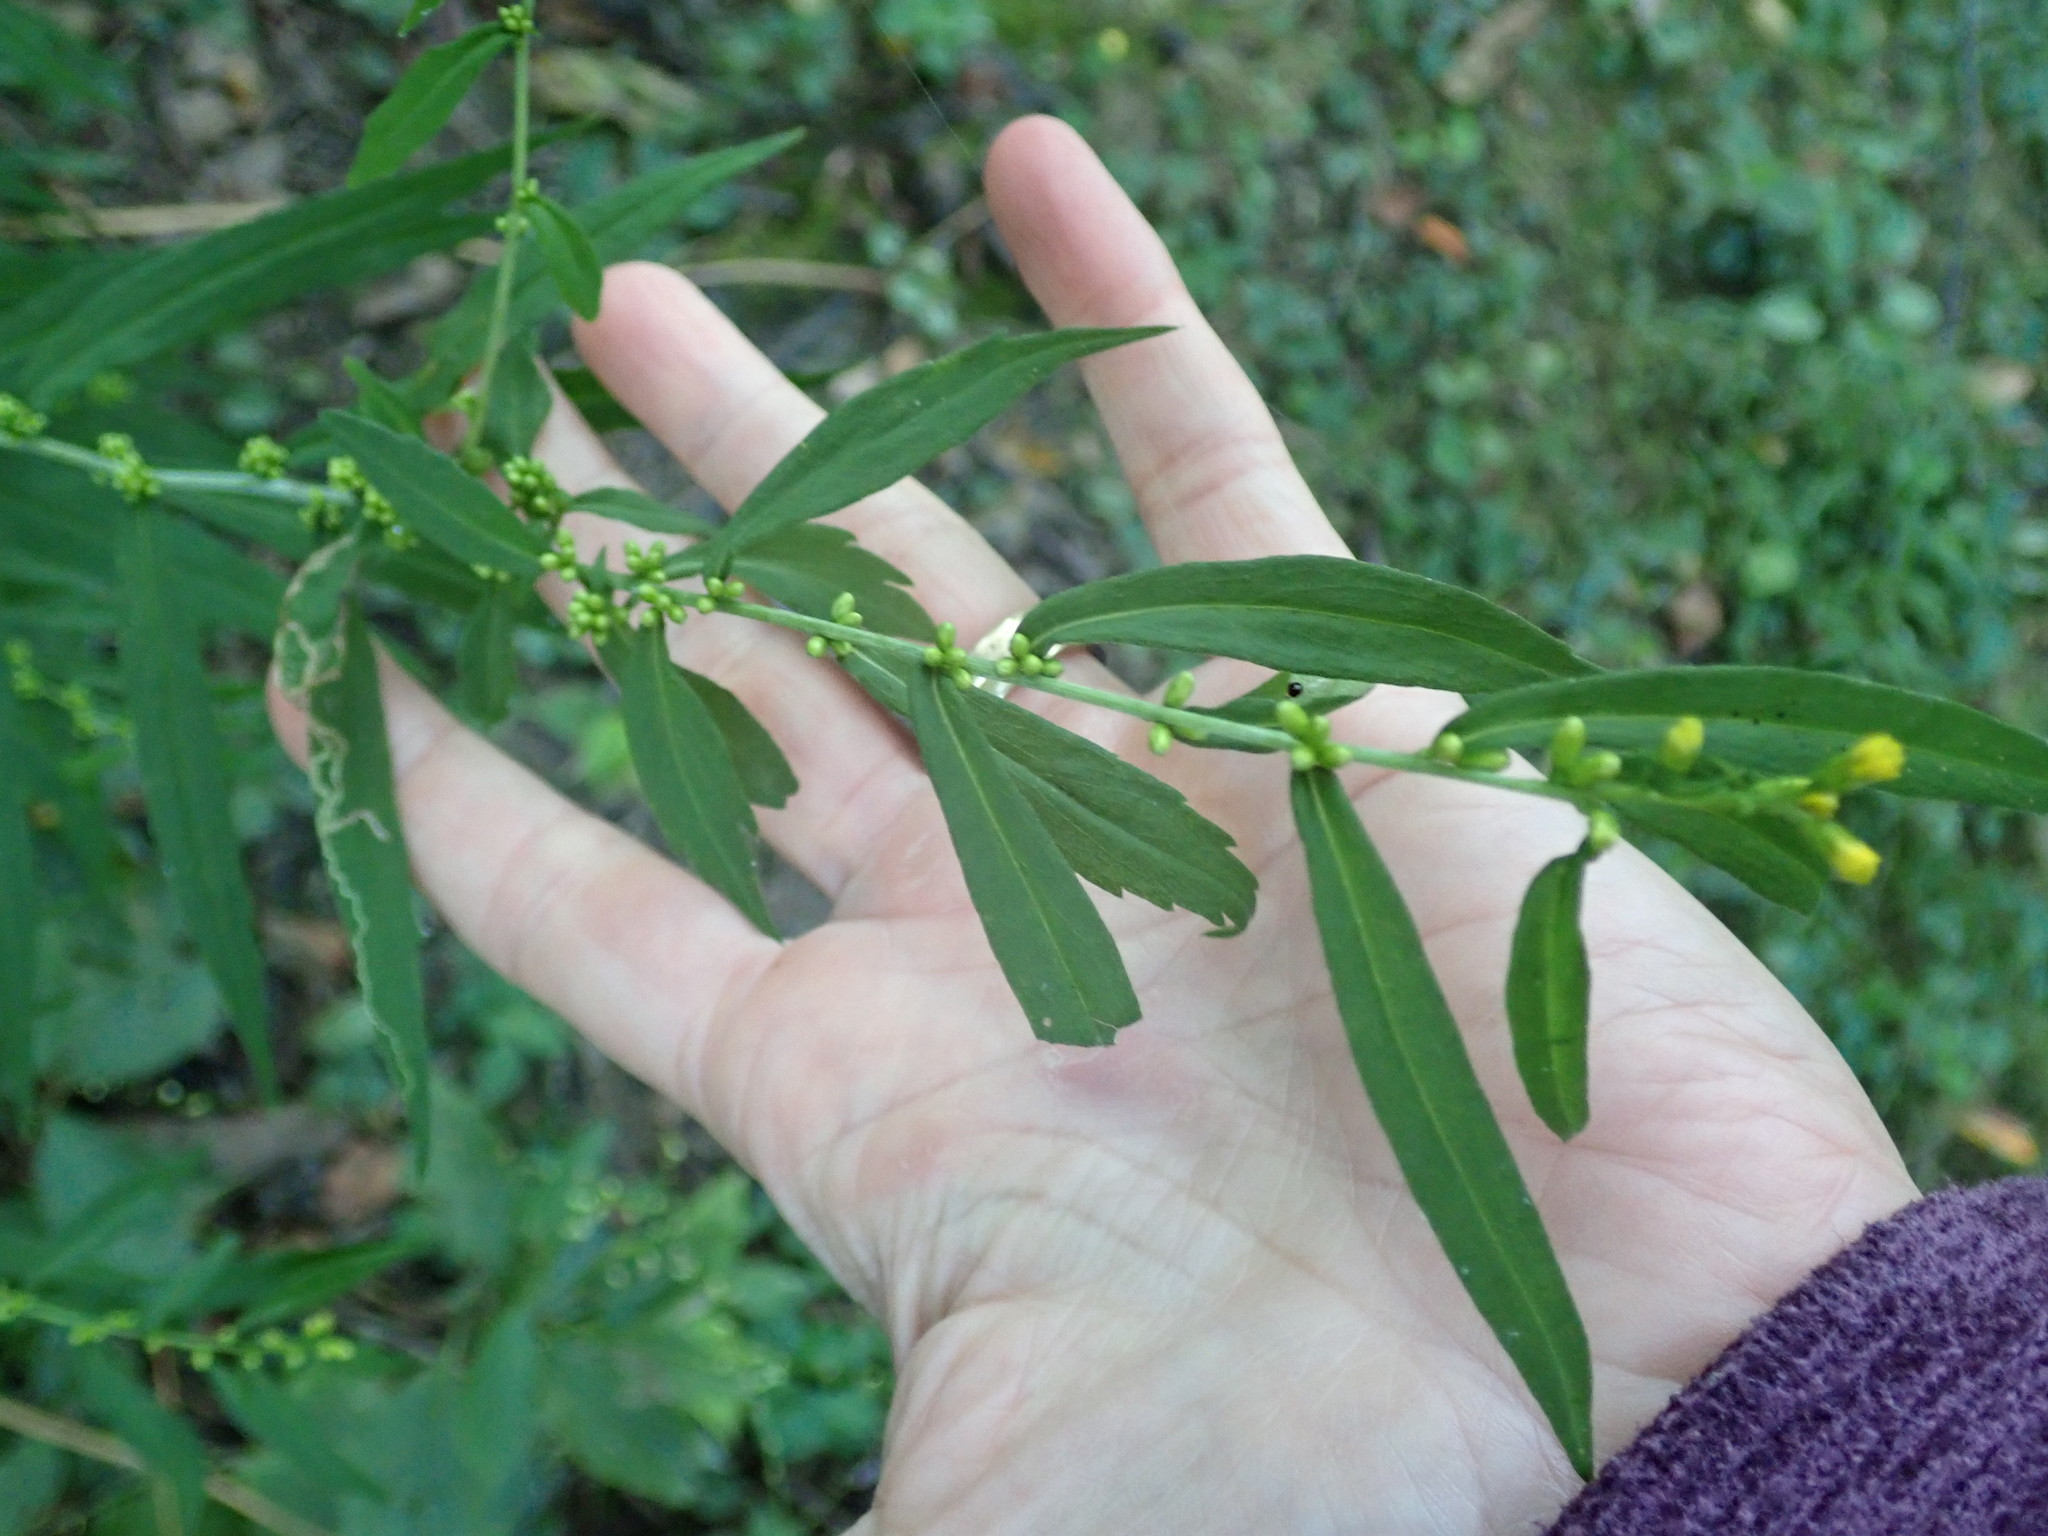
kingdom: Plantae
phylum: Tracheophyta
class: Magnoliopsida
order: Asterales
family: Asteraceae
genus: Solidago
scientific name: Solidago caesia
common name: Woodland goldenrod
